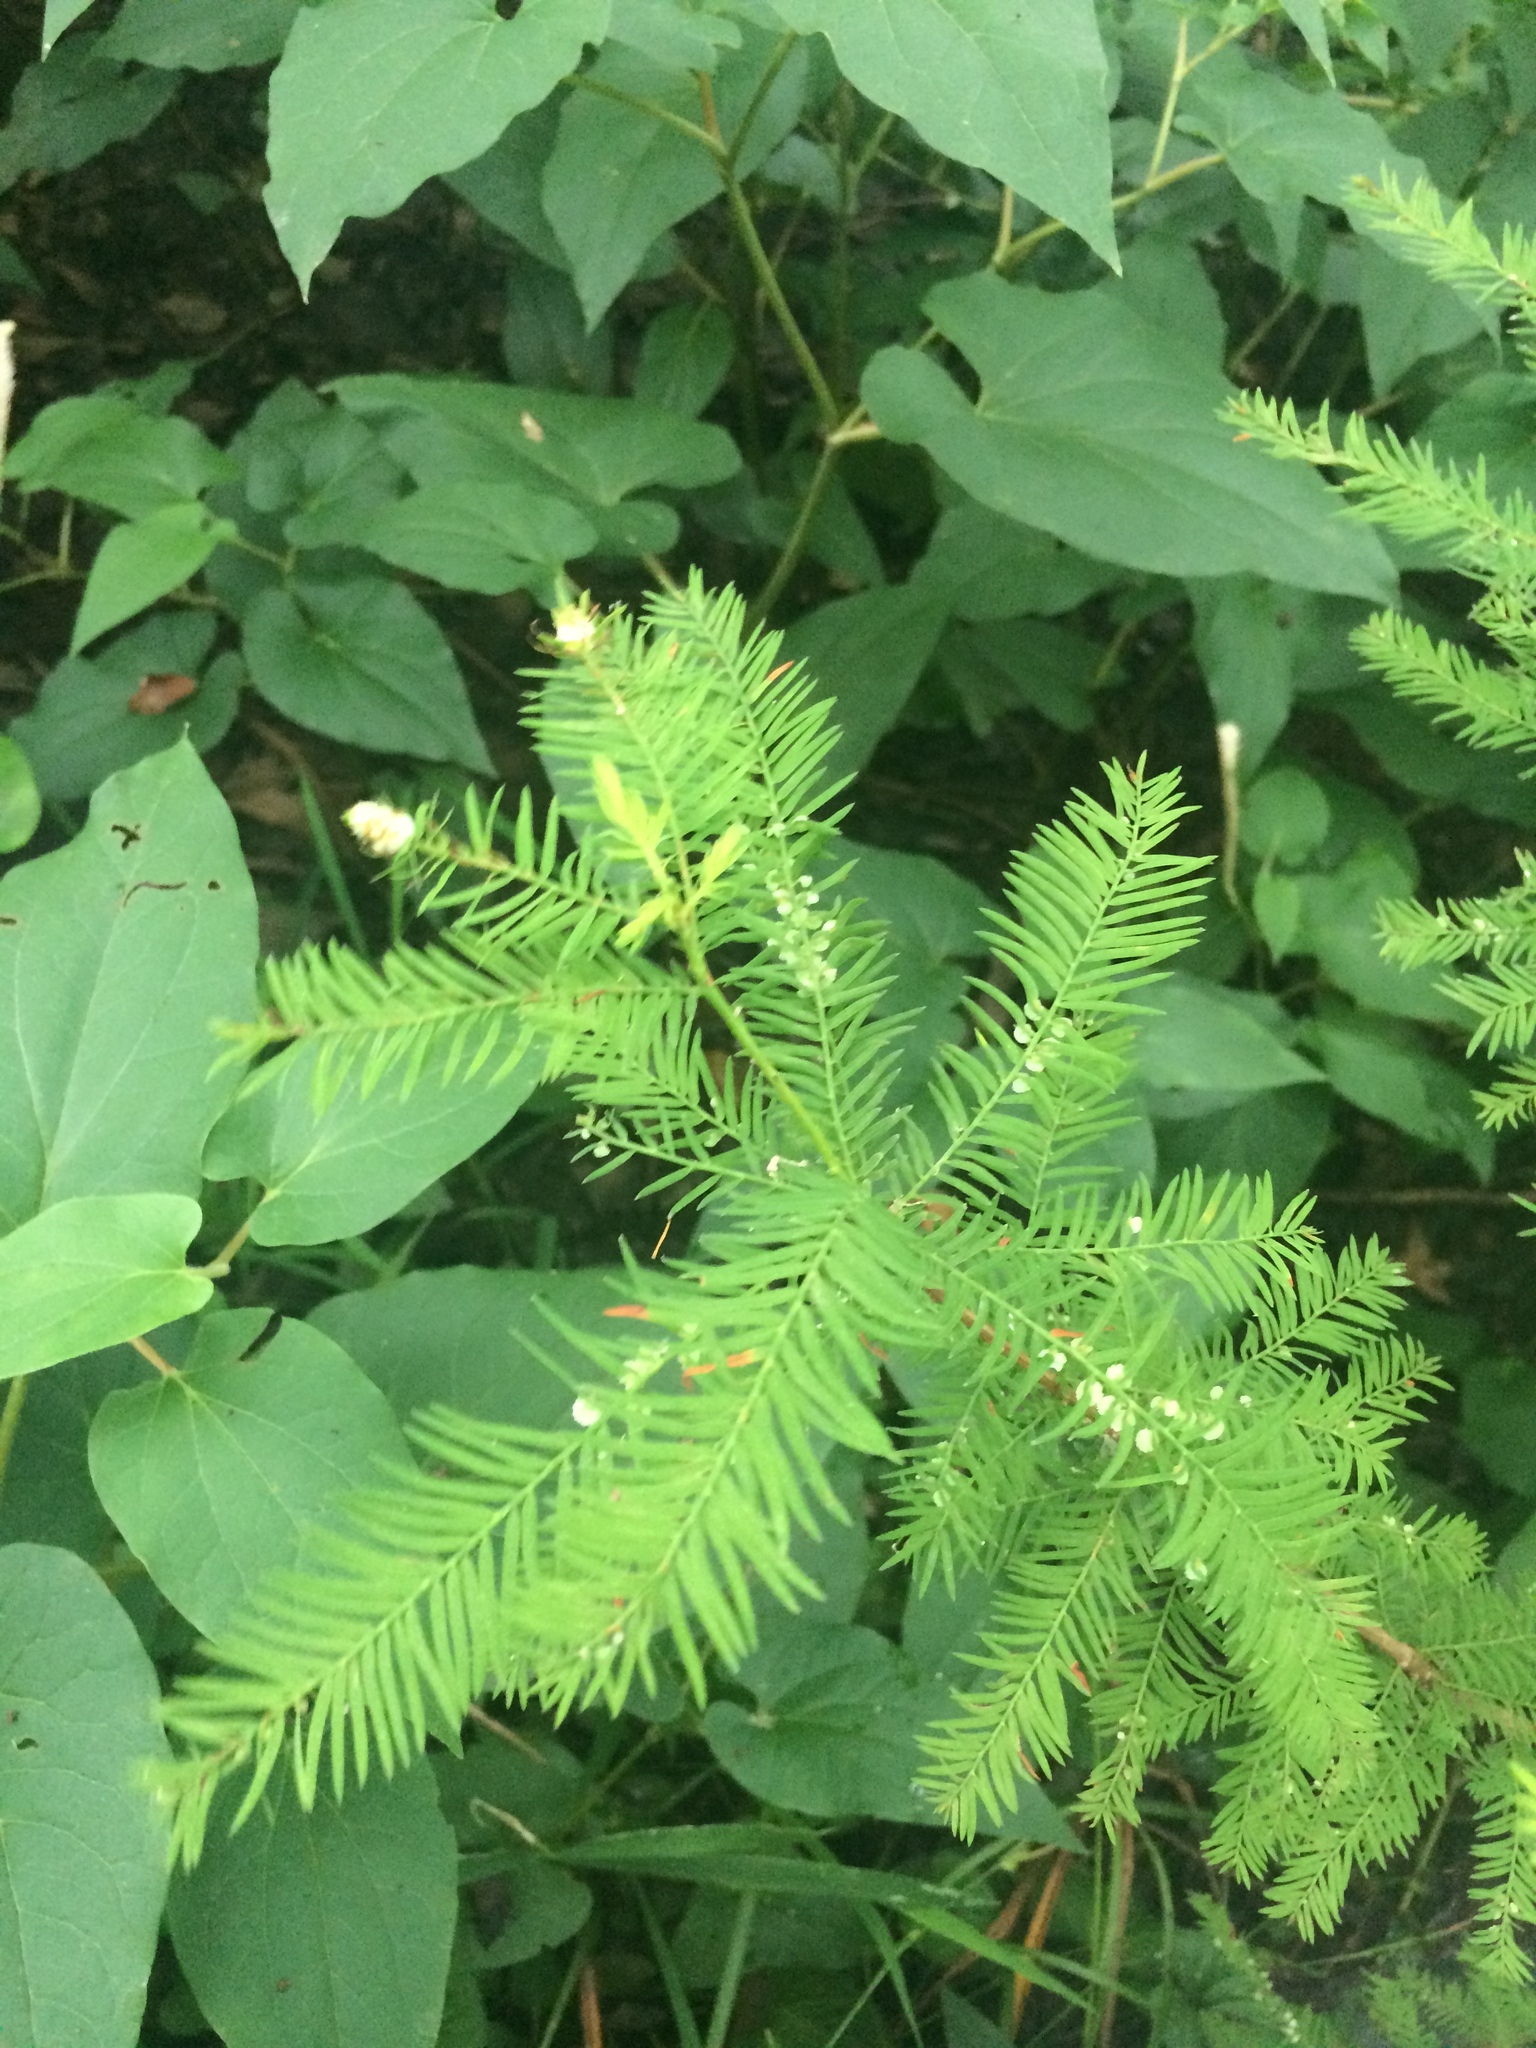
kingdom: Animalia
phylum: Arthropoda
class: Insecta
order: Diptera
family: Cecidomyiidae
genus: Taxodiomyia
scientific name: Taxodiomyia cupressiananassa
